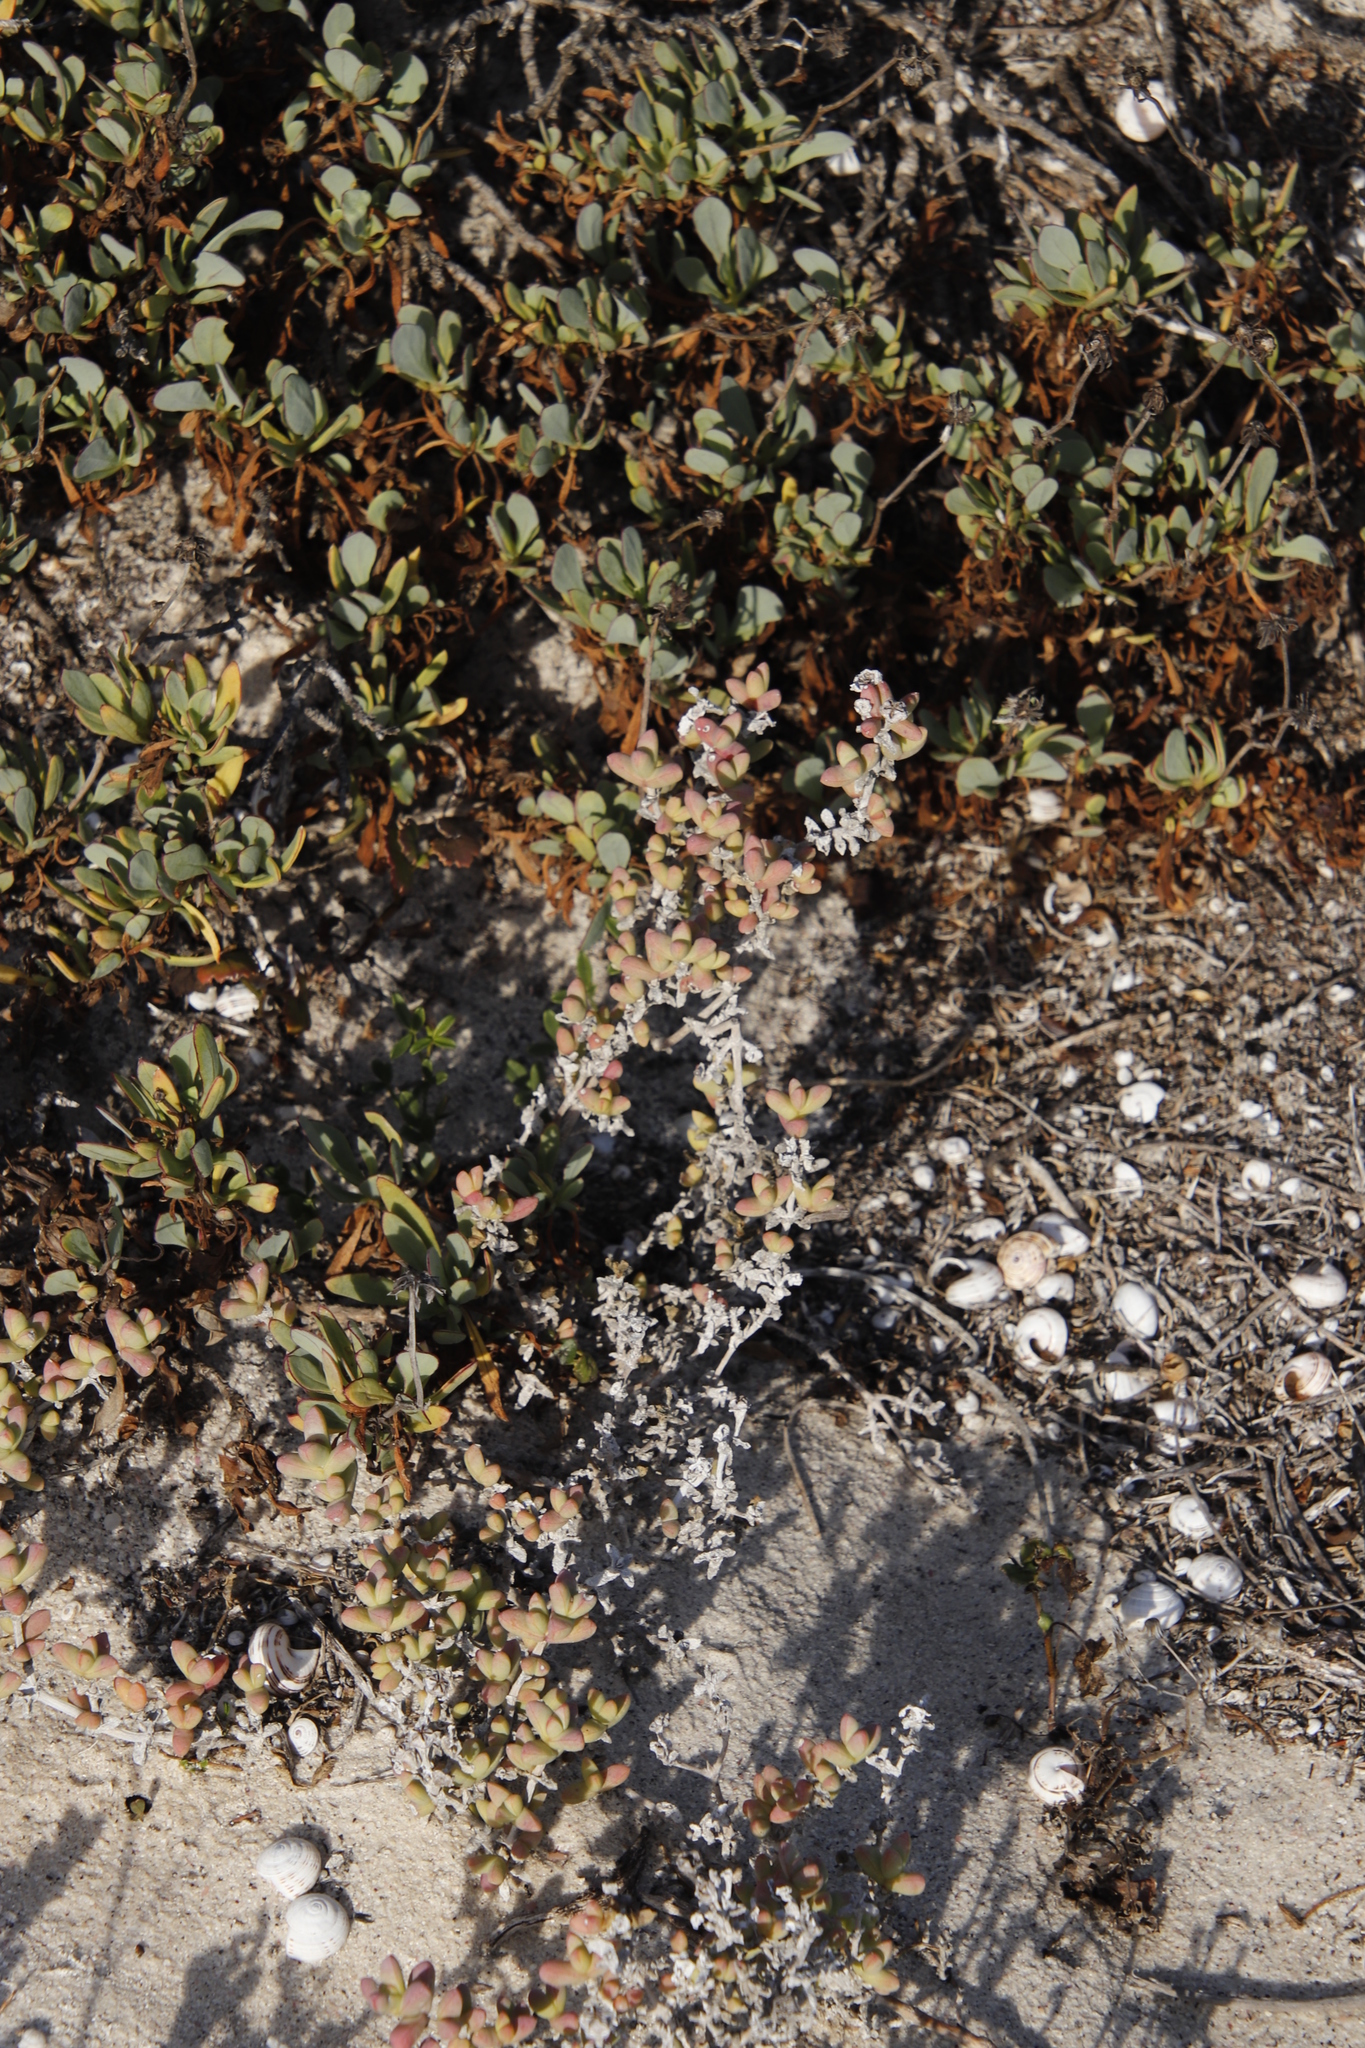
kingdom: Plantae
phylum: Tracheophyta
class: Magnoliopsida
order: Caryophyllales
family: Aizoaceae
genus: Amphibolia
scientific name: Amphibolia laevis
